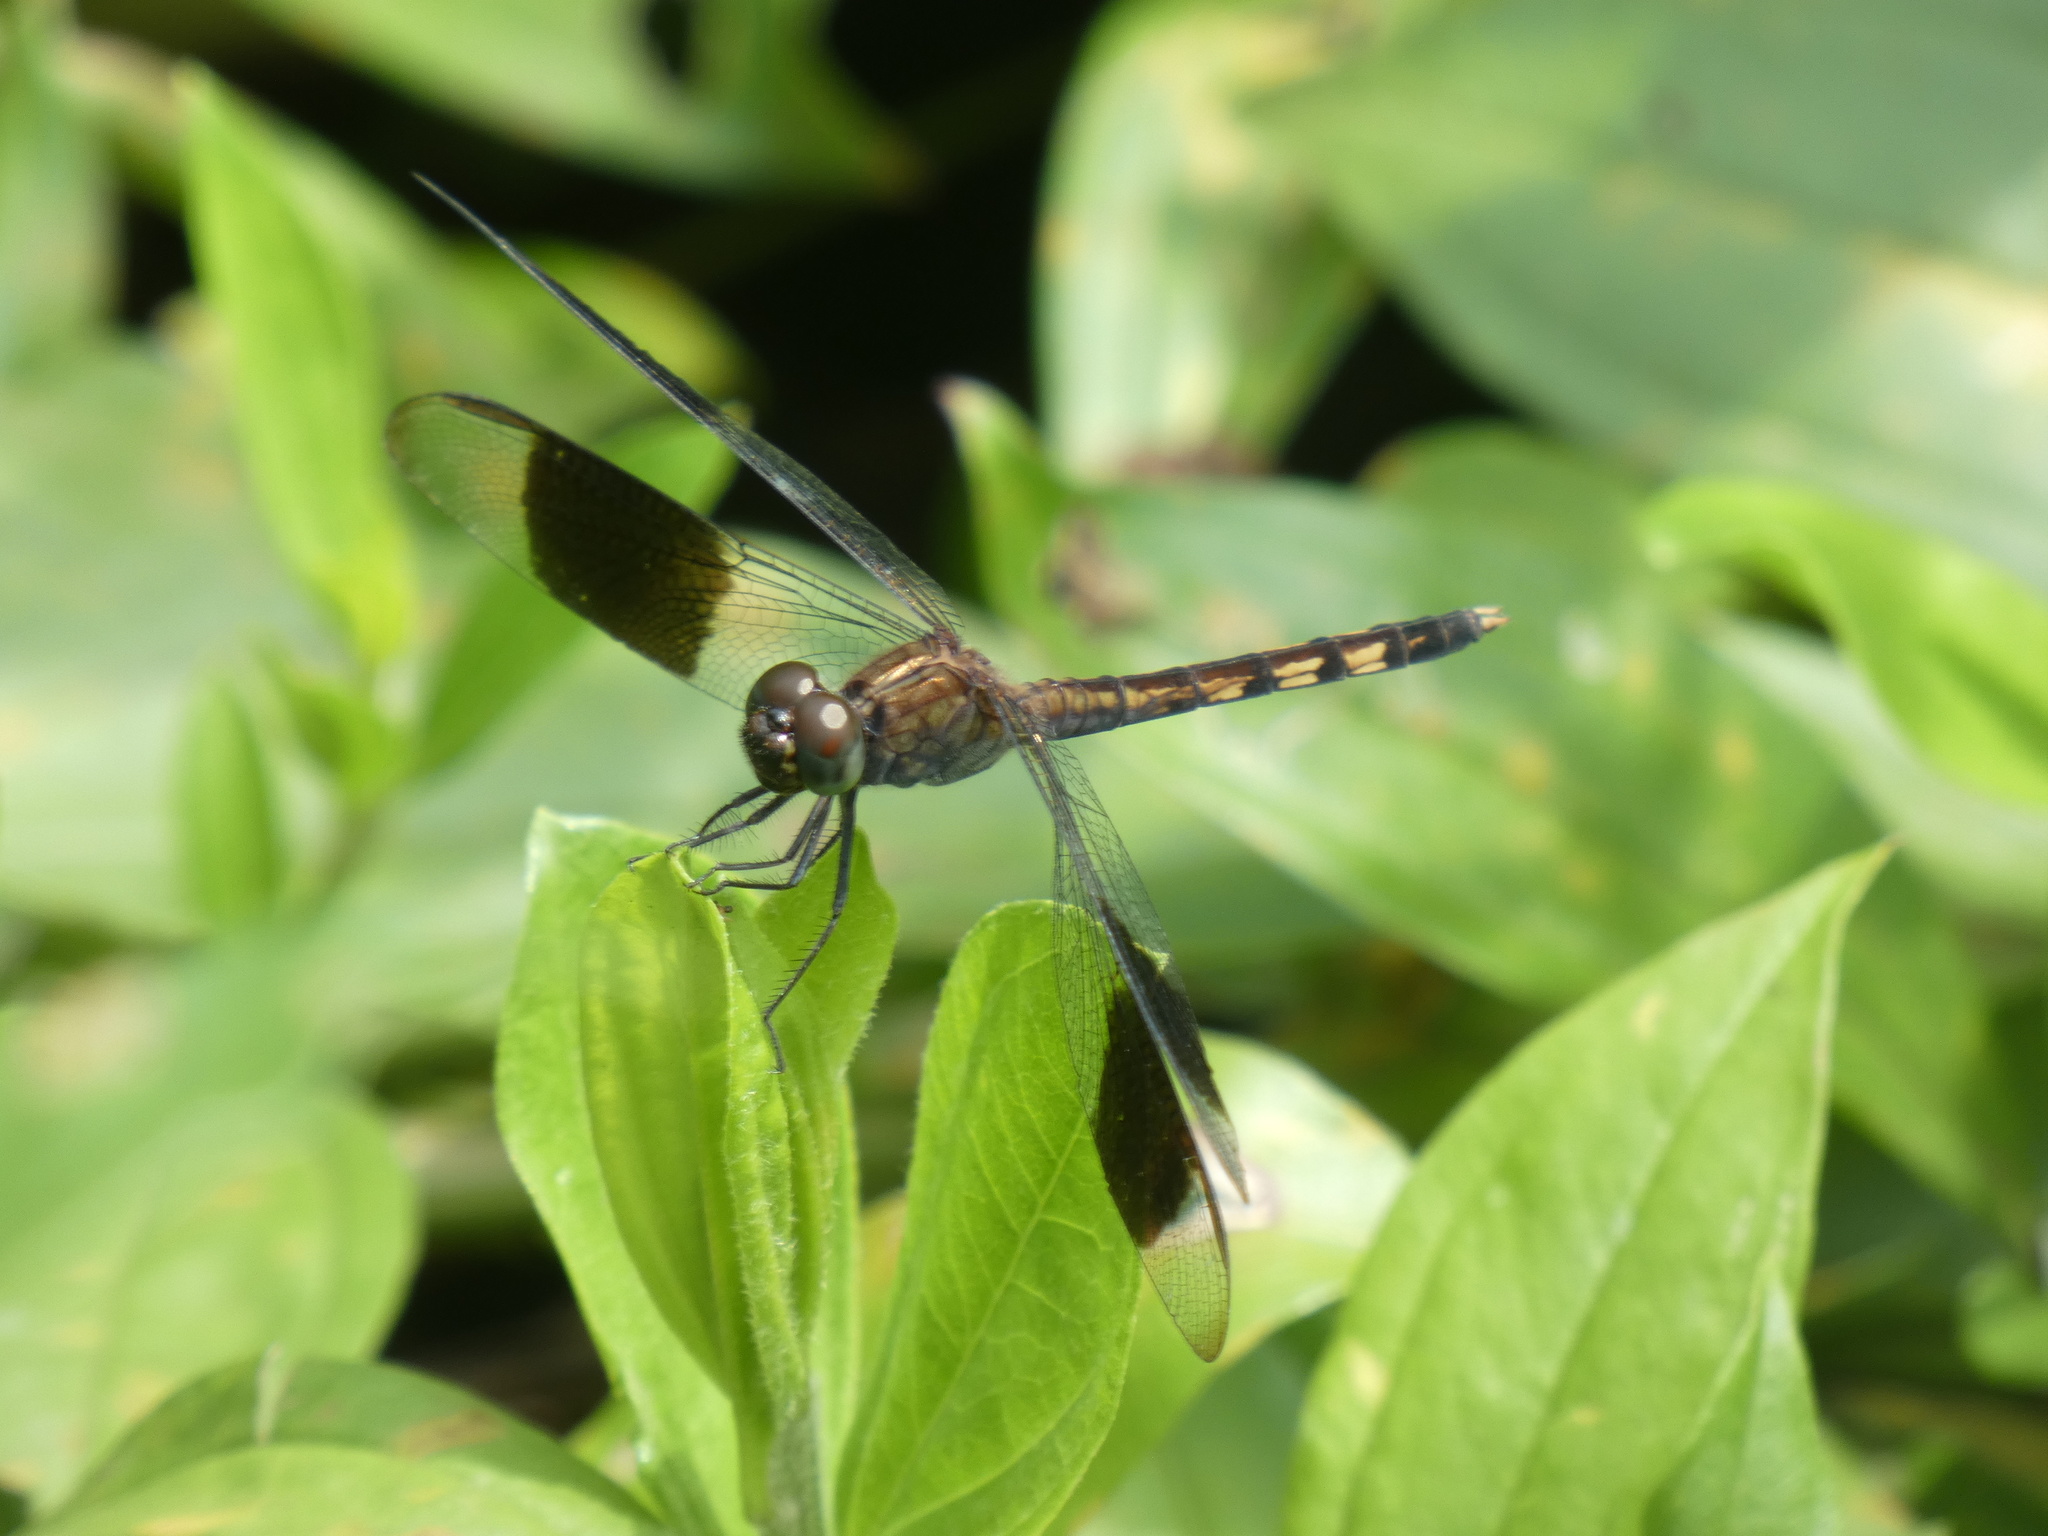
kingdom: Animalia
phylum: Arthropoda
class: Insecta
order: Odonata
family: Libellulidae
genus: Erythrodiplax
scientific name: Erythrodiplax umbrata
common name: Band-winged dragonlet
